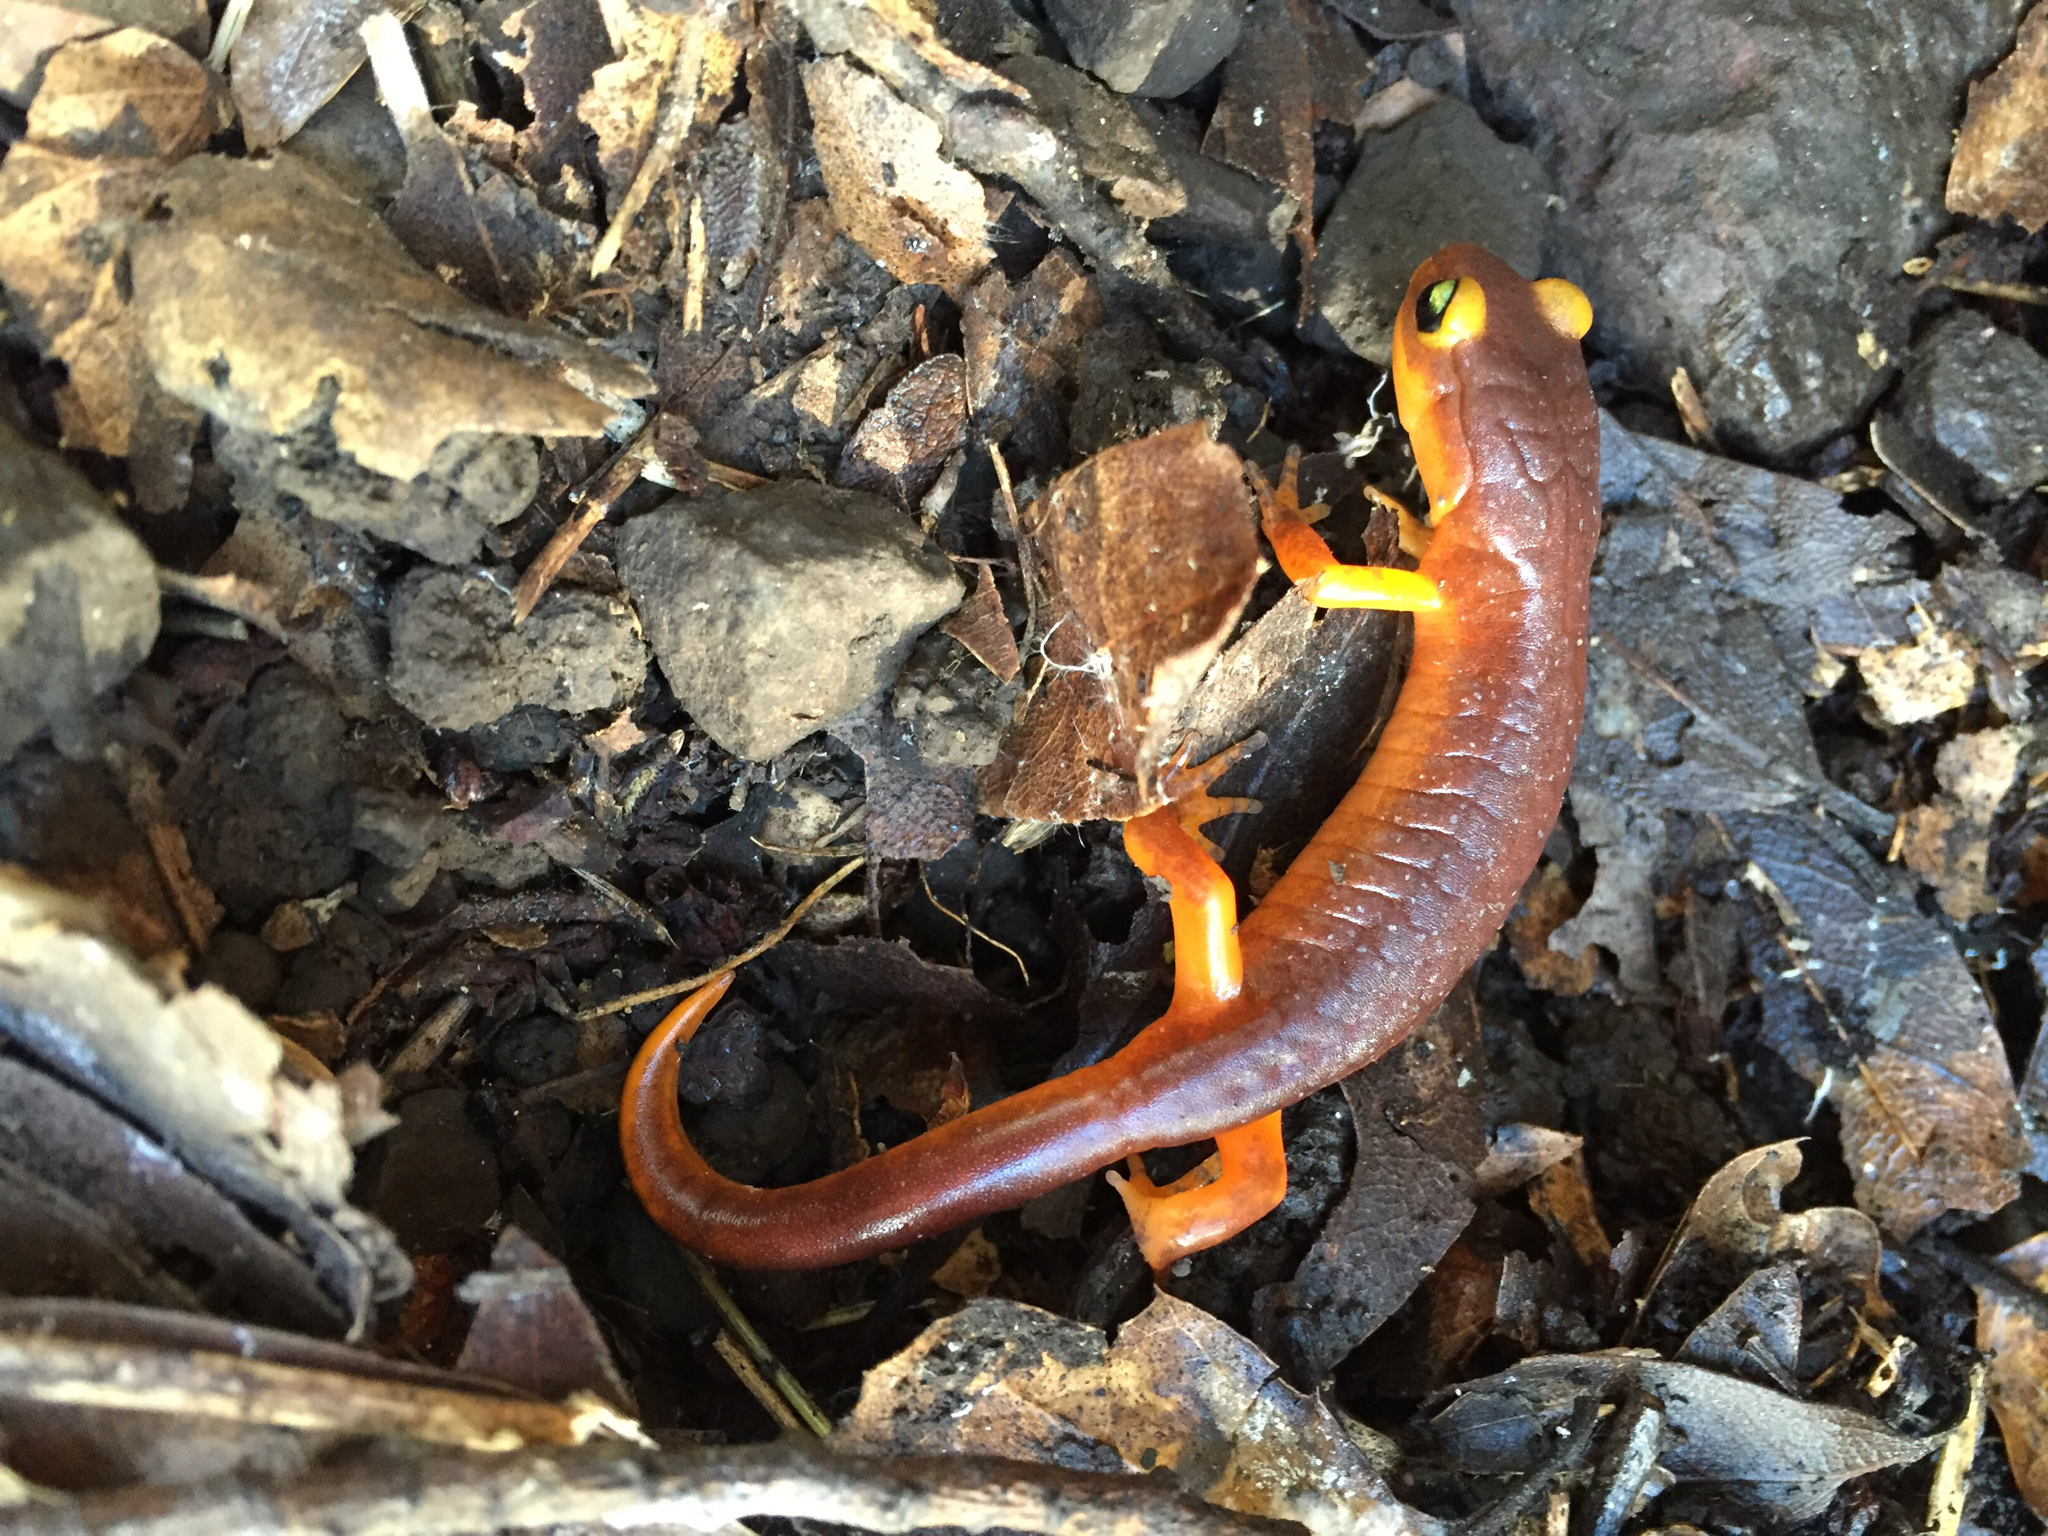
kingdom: Animalia
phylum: Chordata
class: Amphibia
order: Caudata
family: Plethodontidae
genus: Ensatina
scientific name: Ensatina eschscholtzii
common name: Ensatina
